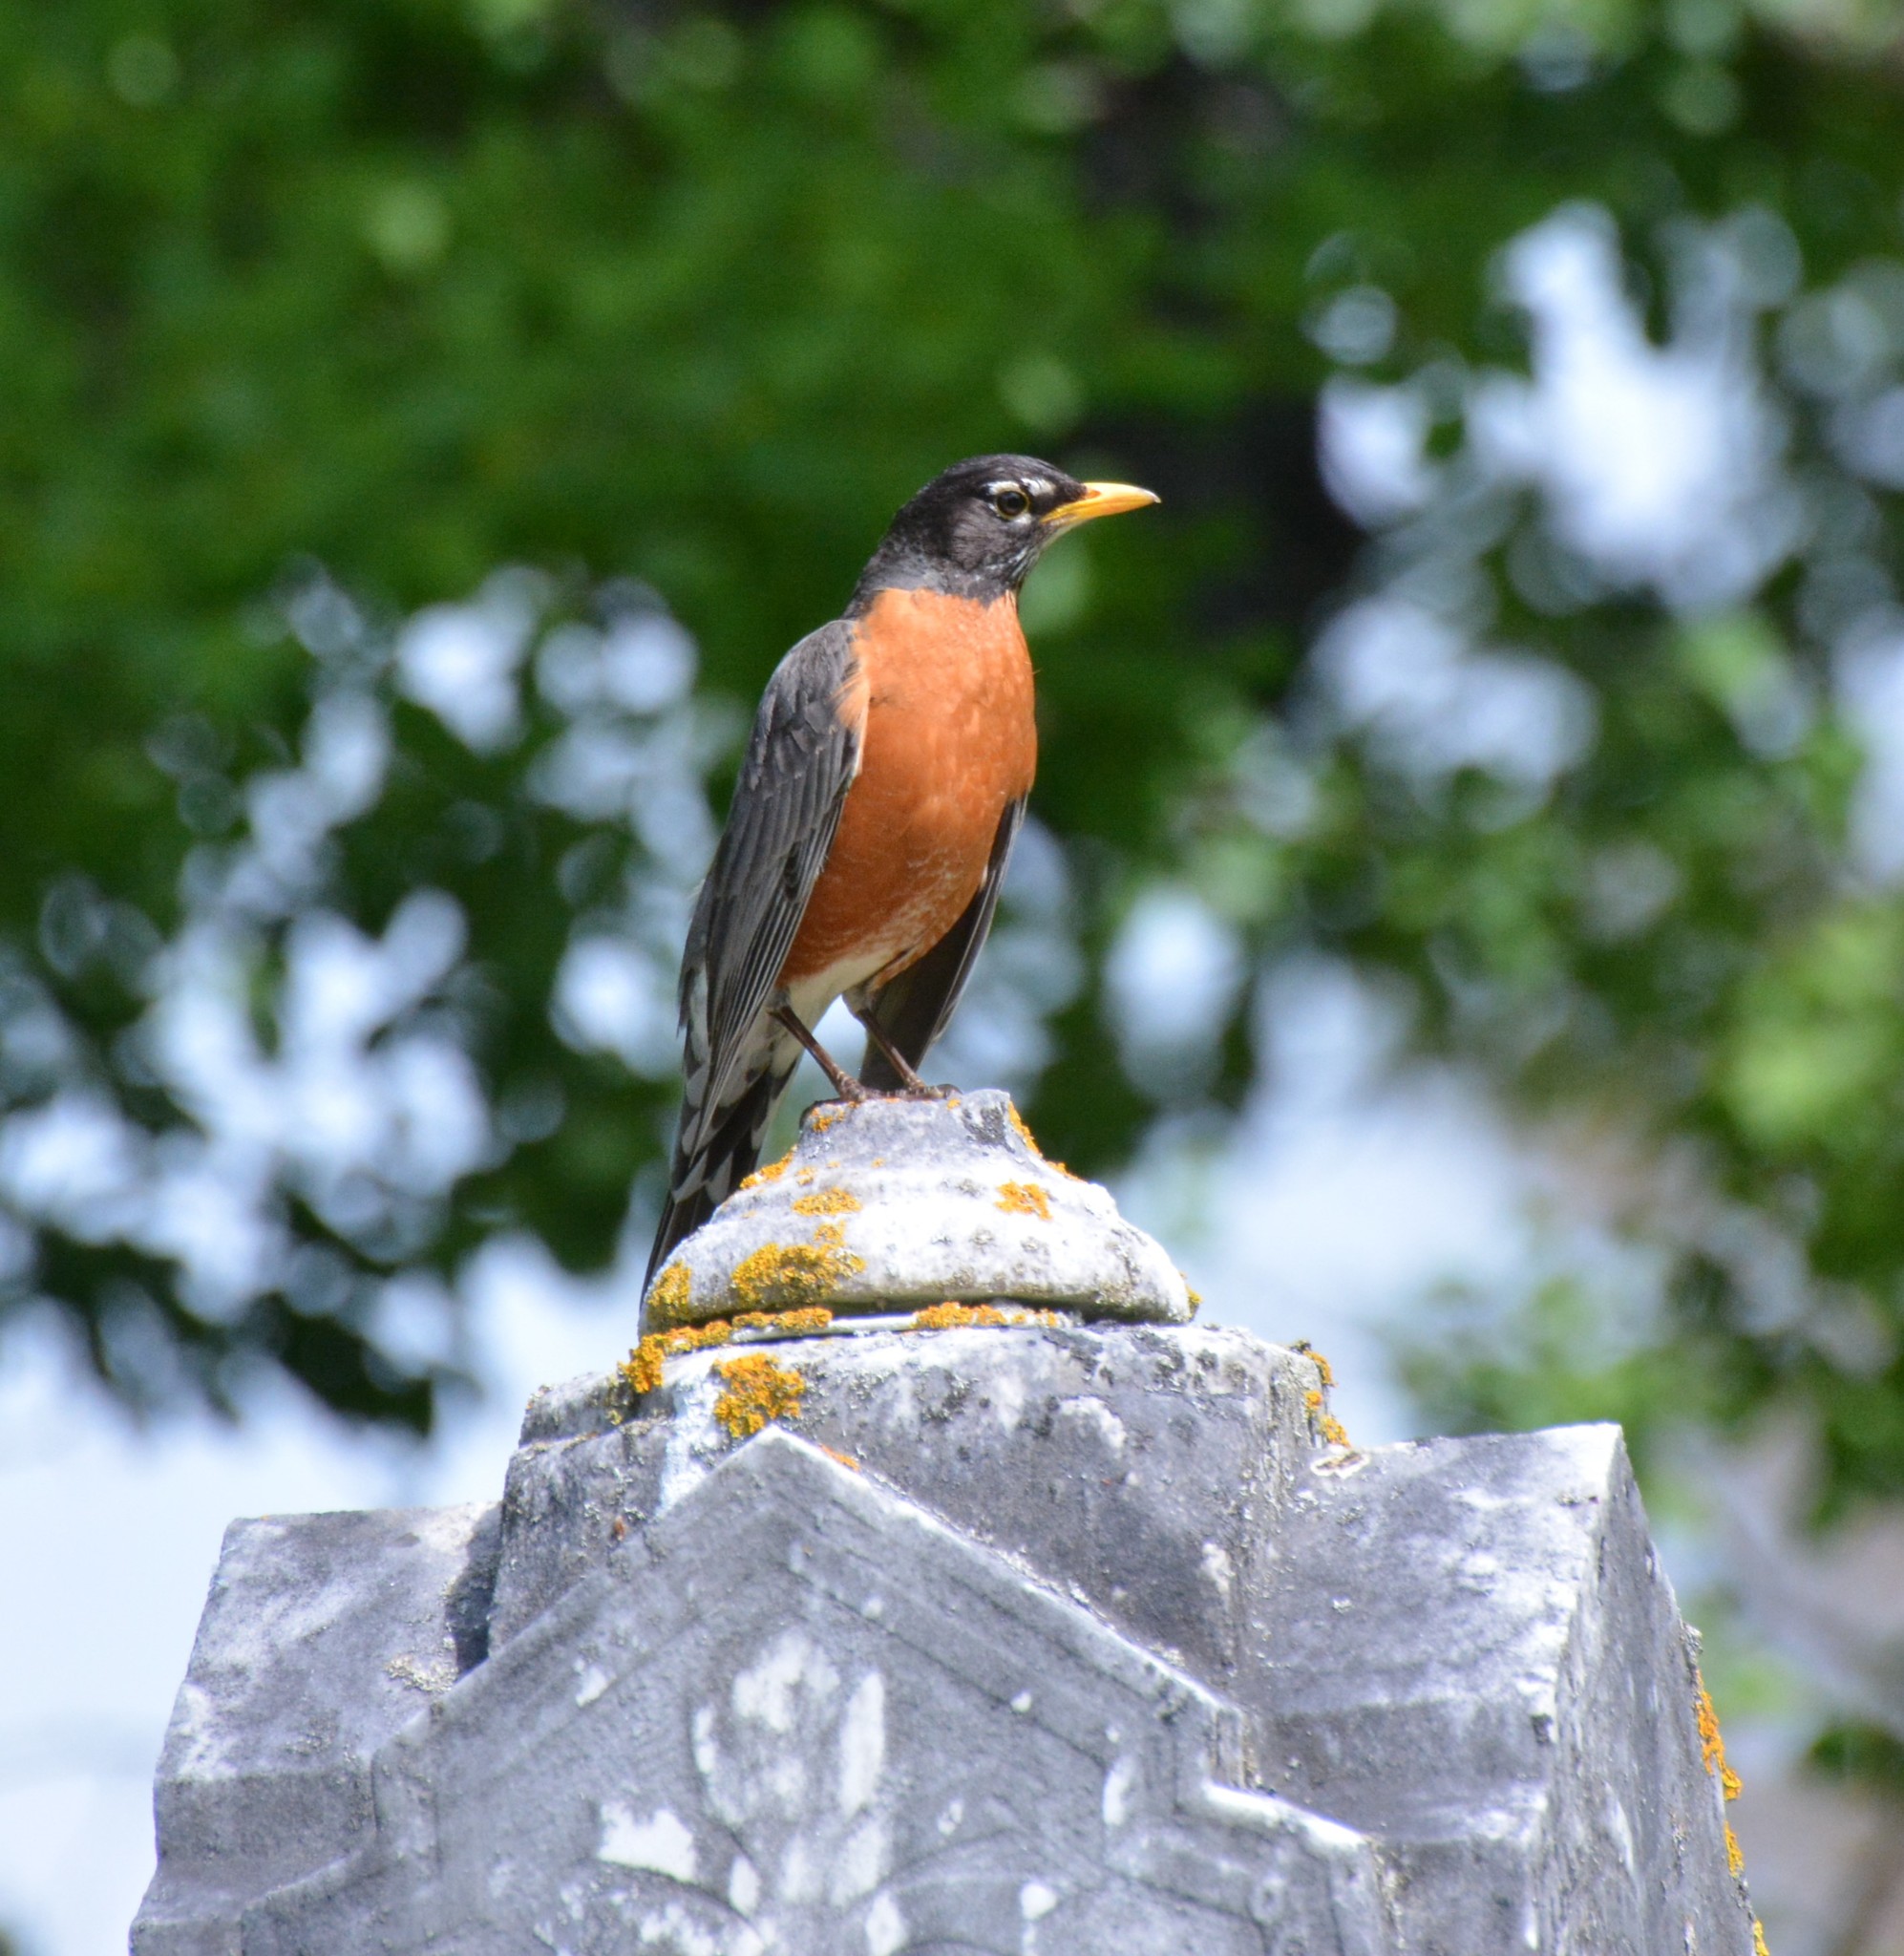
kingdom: Animalia
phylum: Chordata
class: Aves
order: Passeriformes
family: Turdidae
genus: Turdus
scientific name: Turdus migratorius
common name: American robin
